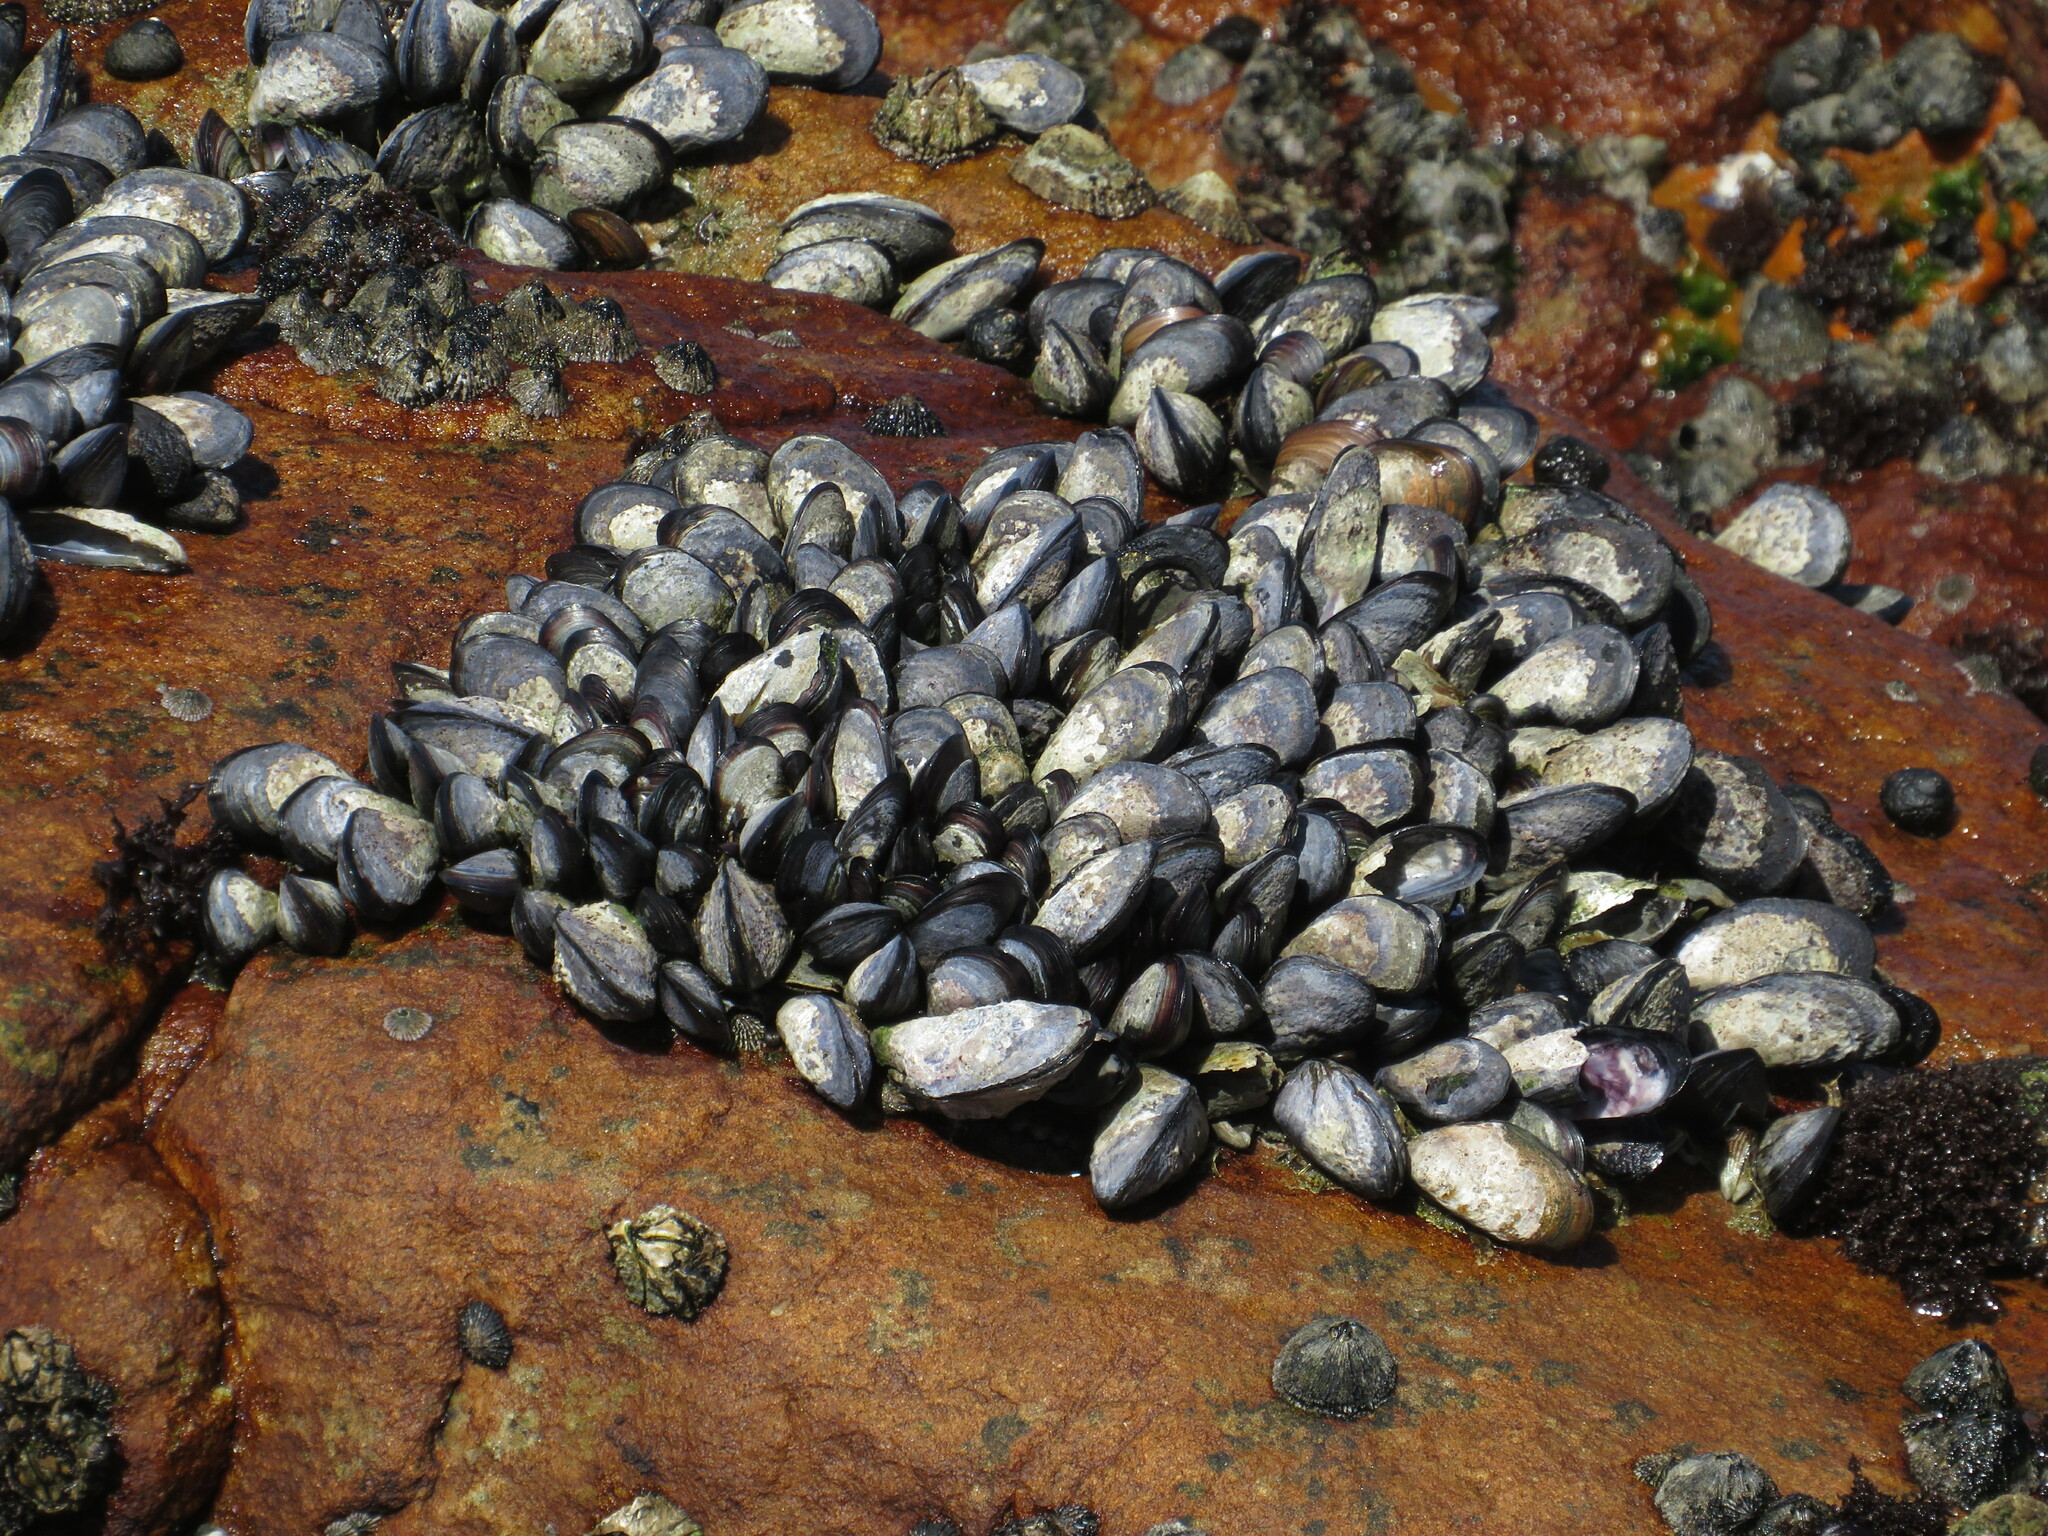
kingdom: Animalia
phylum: Mollusca
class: Bivalvia
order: Mytilida
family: Mytilidae
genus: Mytilus
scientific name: Mytilus galloprovincialis
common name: Mediterranean mussel
